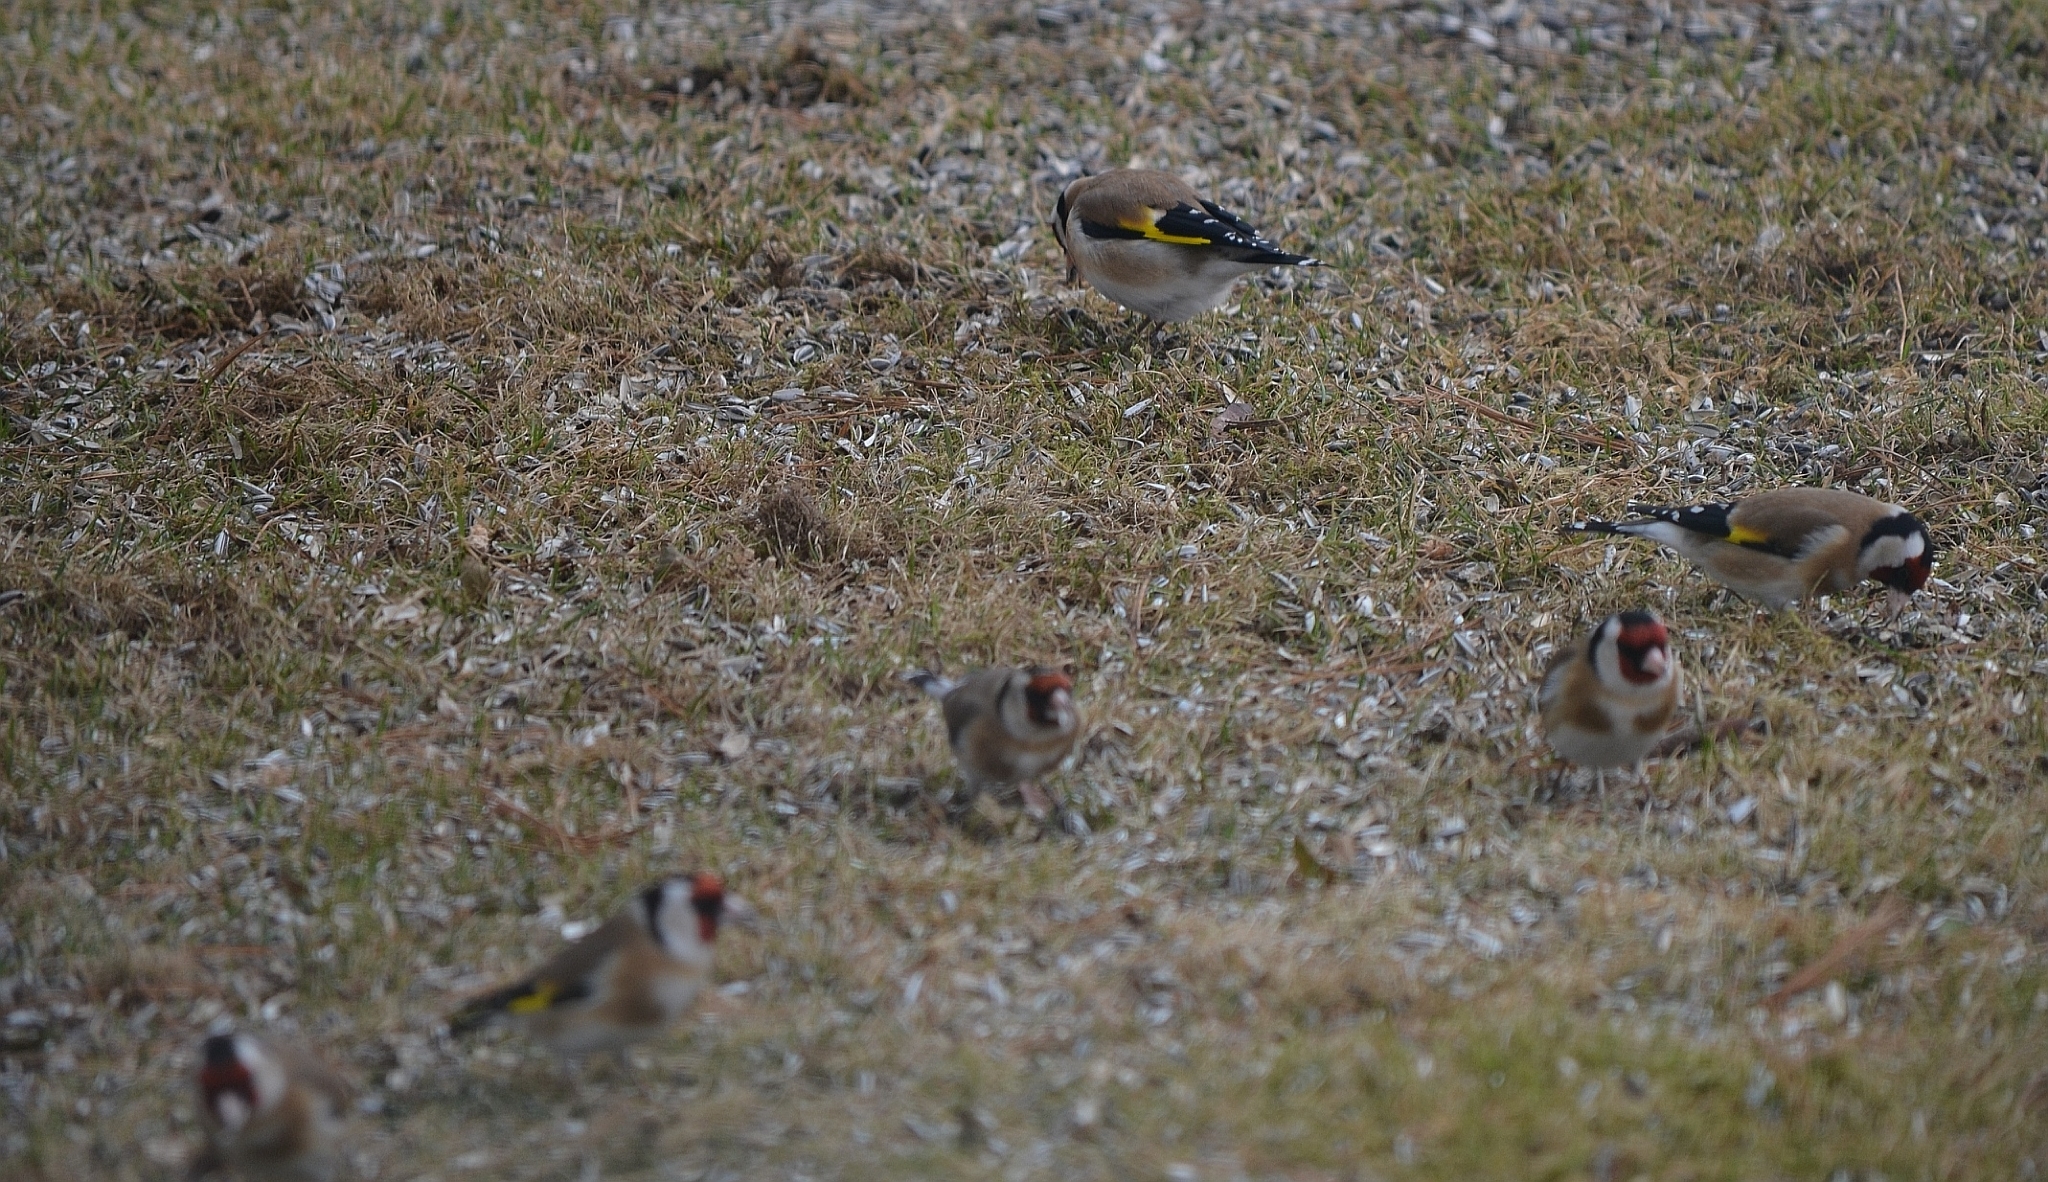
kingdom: Animalia
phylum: Chordata
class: Aves
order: Passeriformes
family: Fringillidae
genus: Carduelis
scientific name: Carduelis carduelis
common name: European goldfinch
